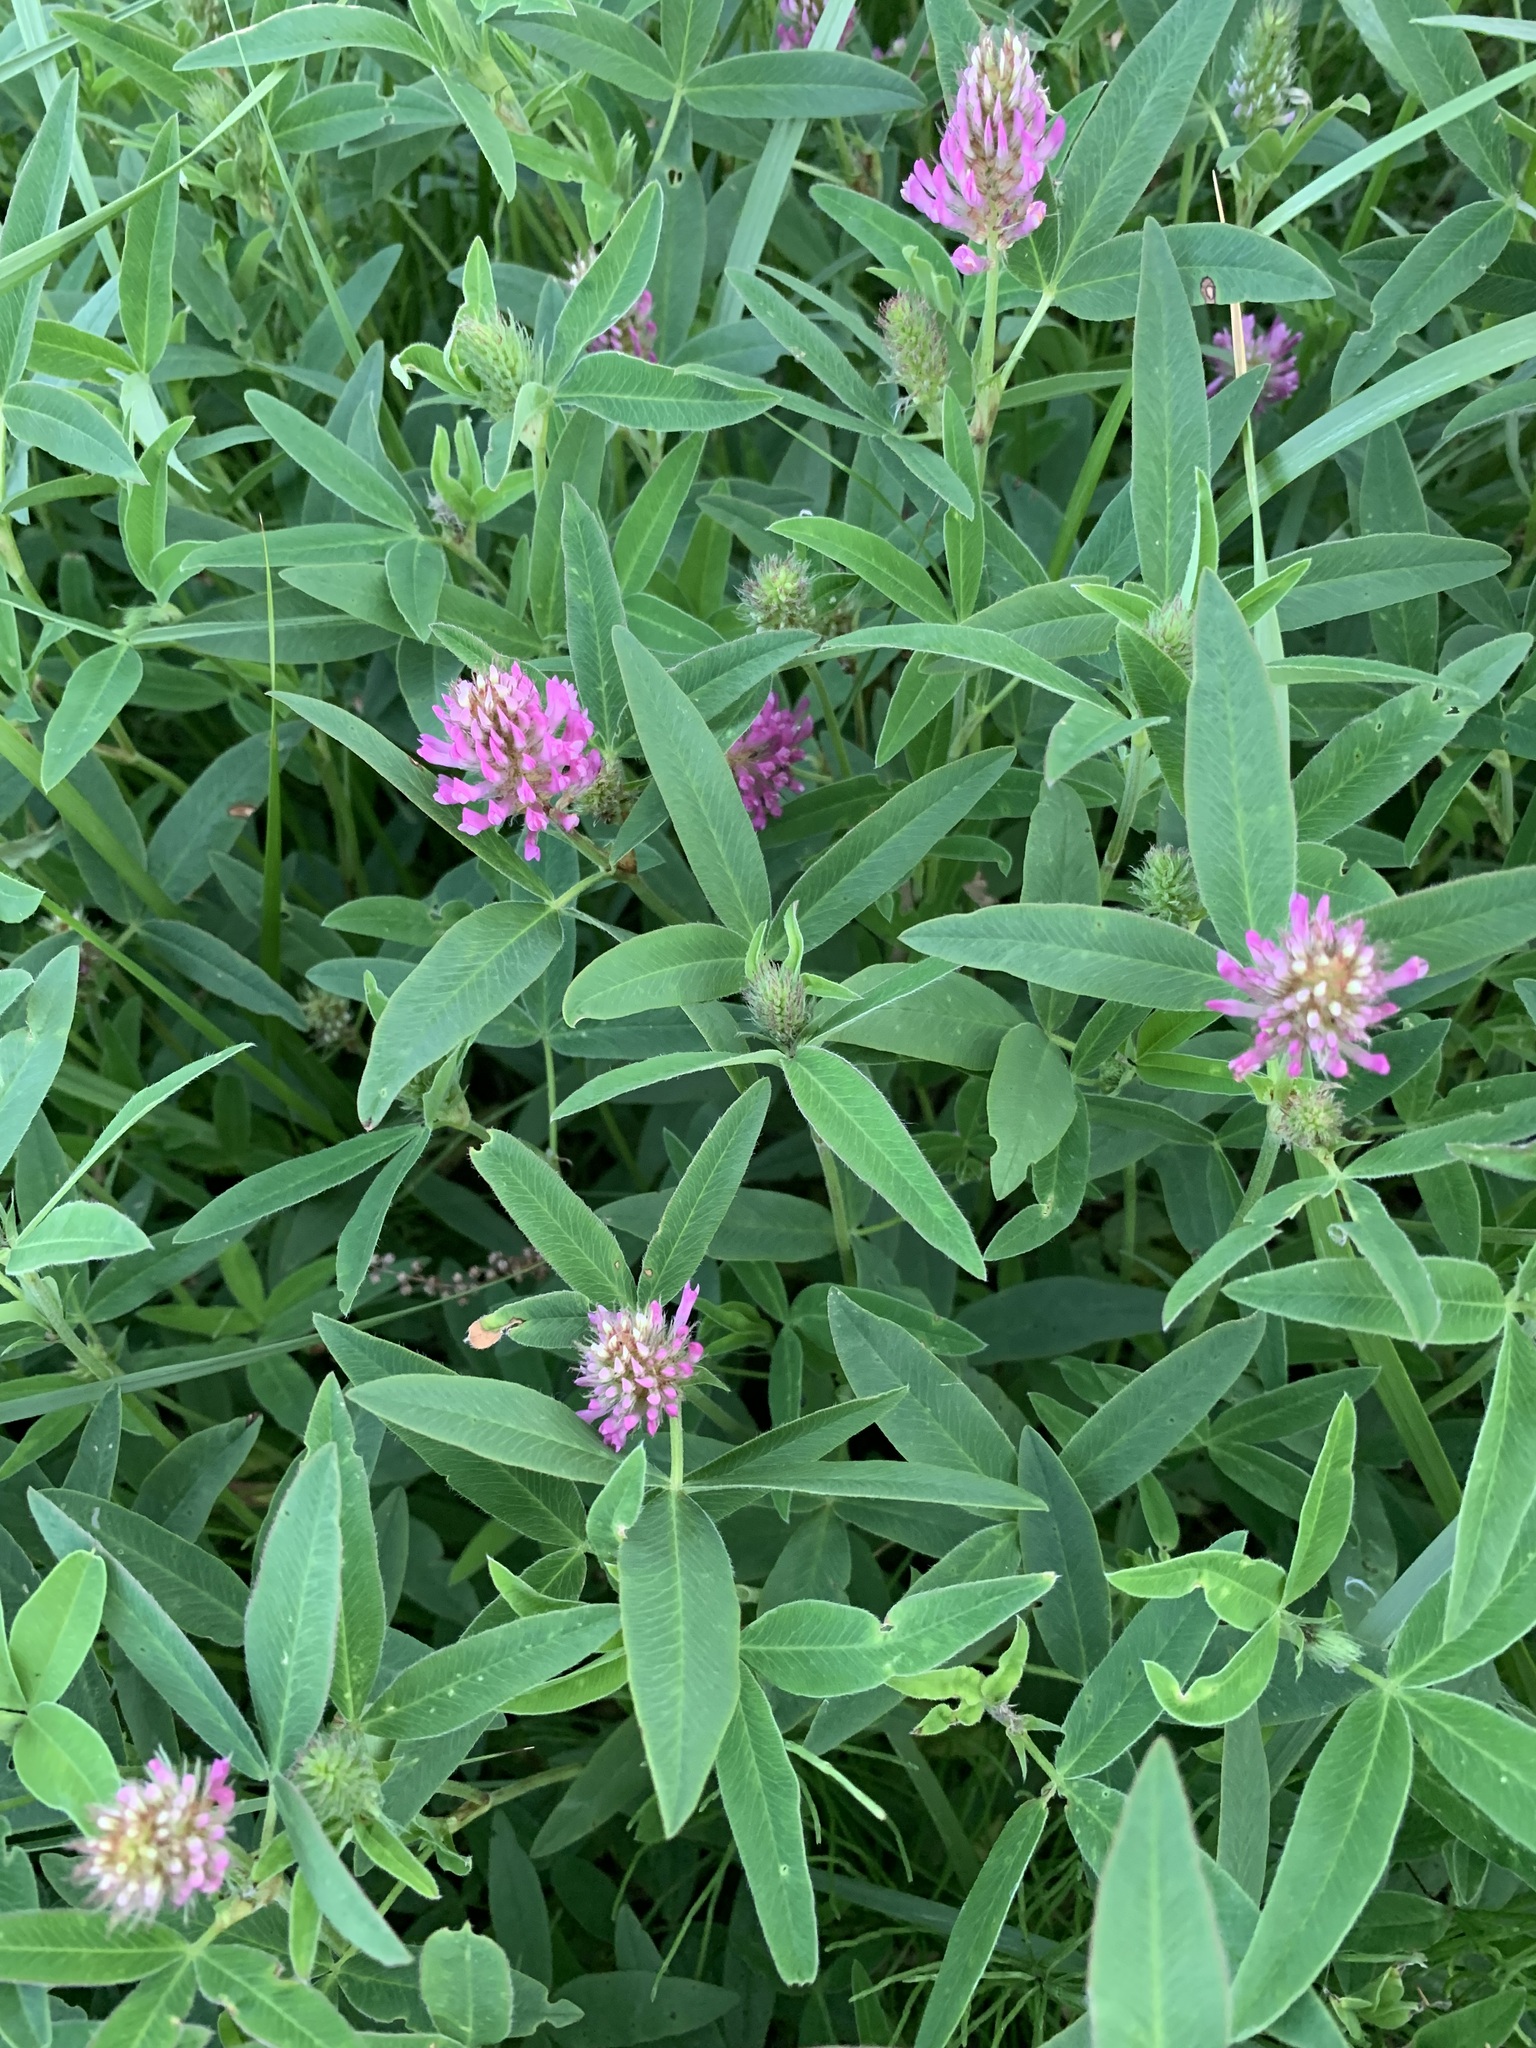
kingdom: Plantae
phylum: Tracheophyta
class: Magnoliopsida
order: Fabales
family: Fabaceae
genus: Trifolium
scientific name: Trifolium medium
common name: Zigzag clover
